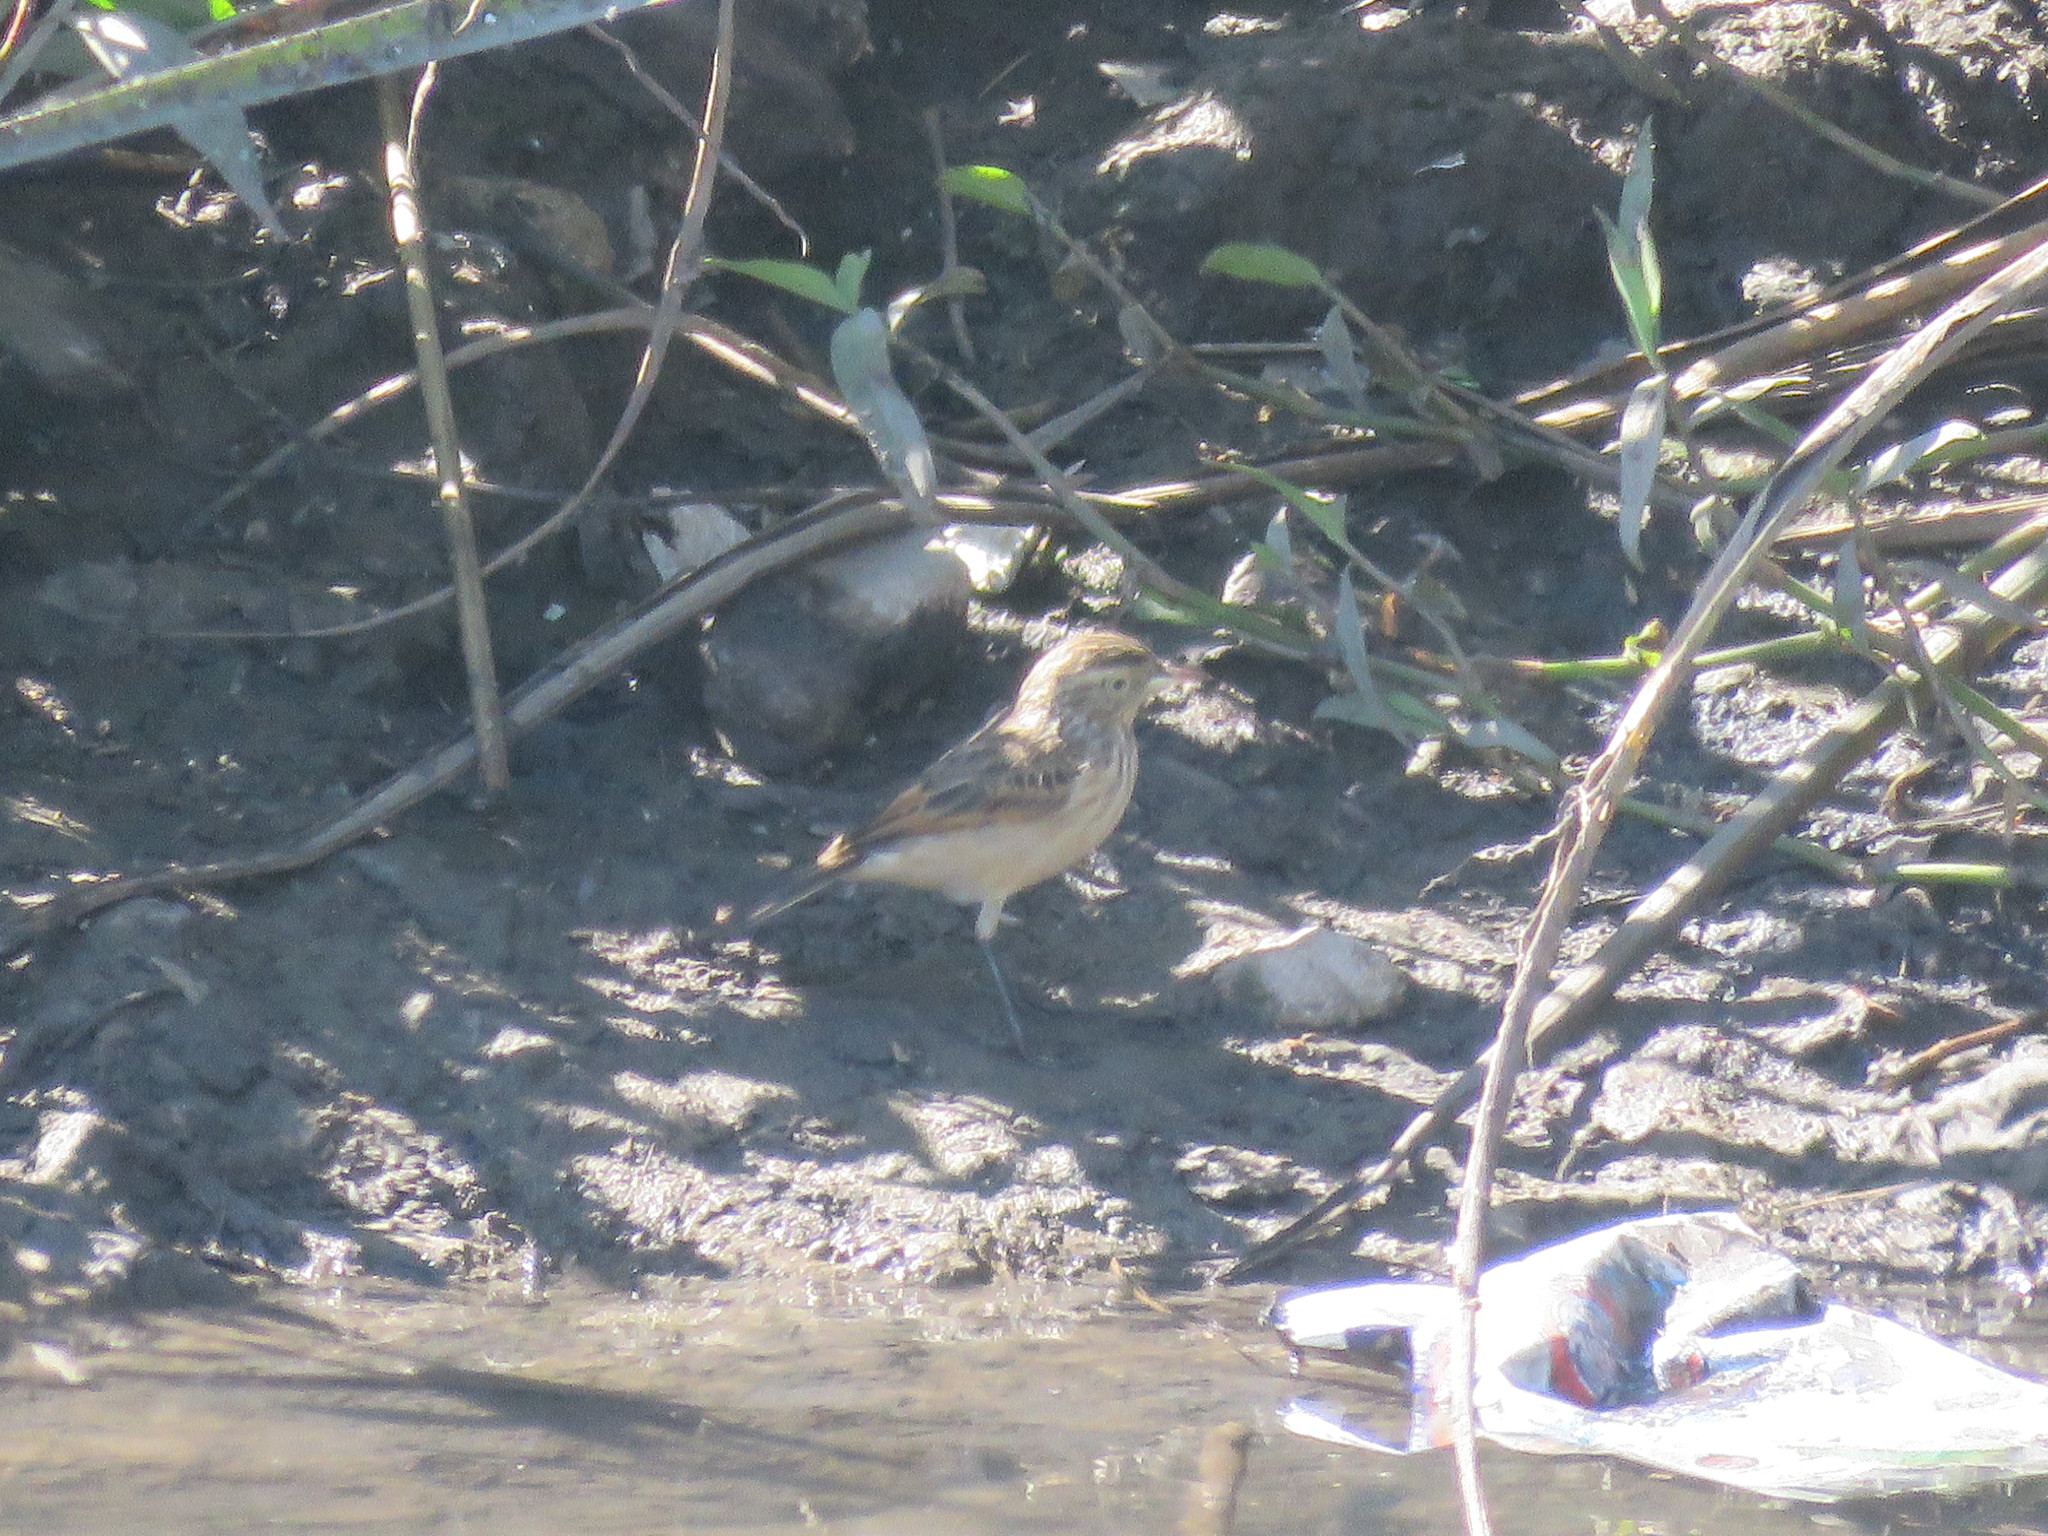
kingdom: Animalia
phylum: Chordata
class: Aves
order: Passeriformes
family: Tyrannidae
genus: Hymenops
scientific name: Hymenops perspicillatus
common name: Spectacled tyrant
